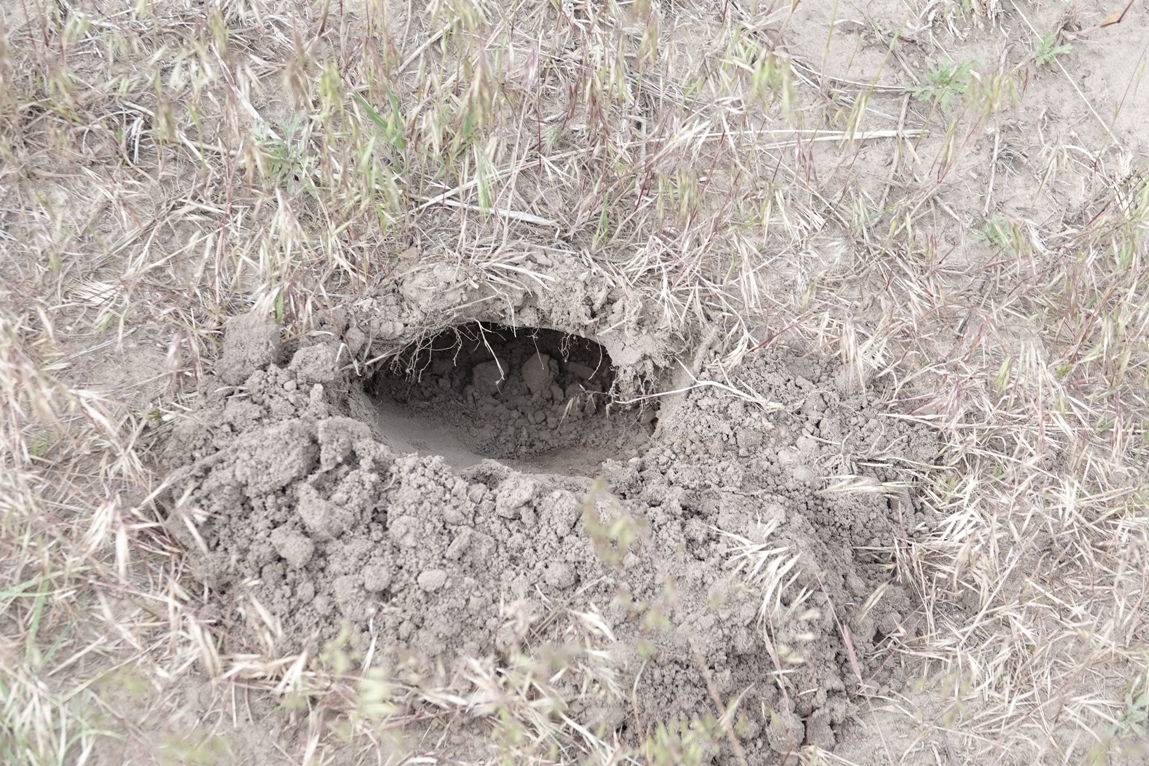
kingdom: Animalia
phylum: Chordata
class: Testudines
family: Emydidae
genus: Terrapene
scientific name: Terrapene ornata
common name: Western box turtle
